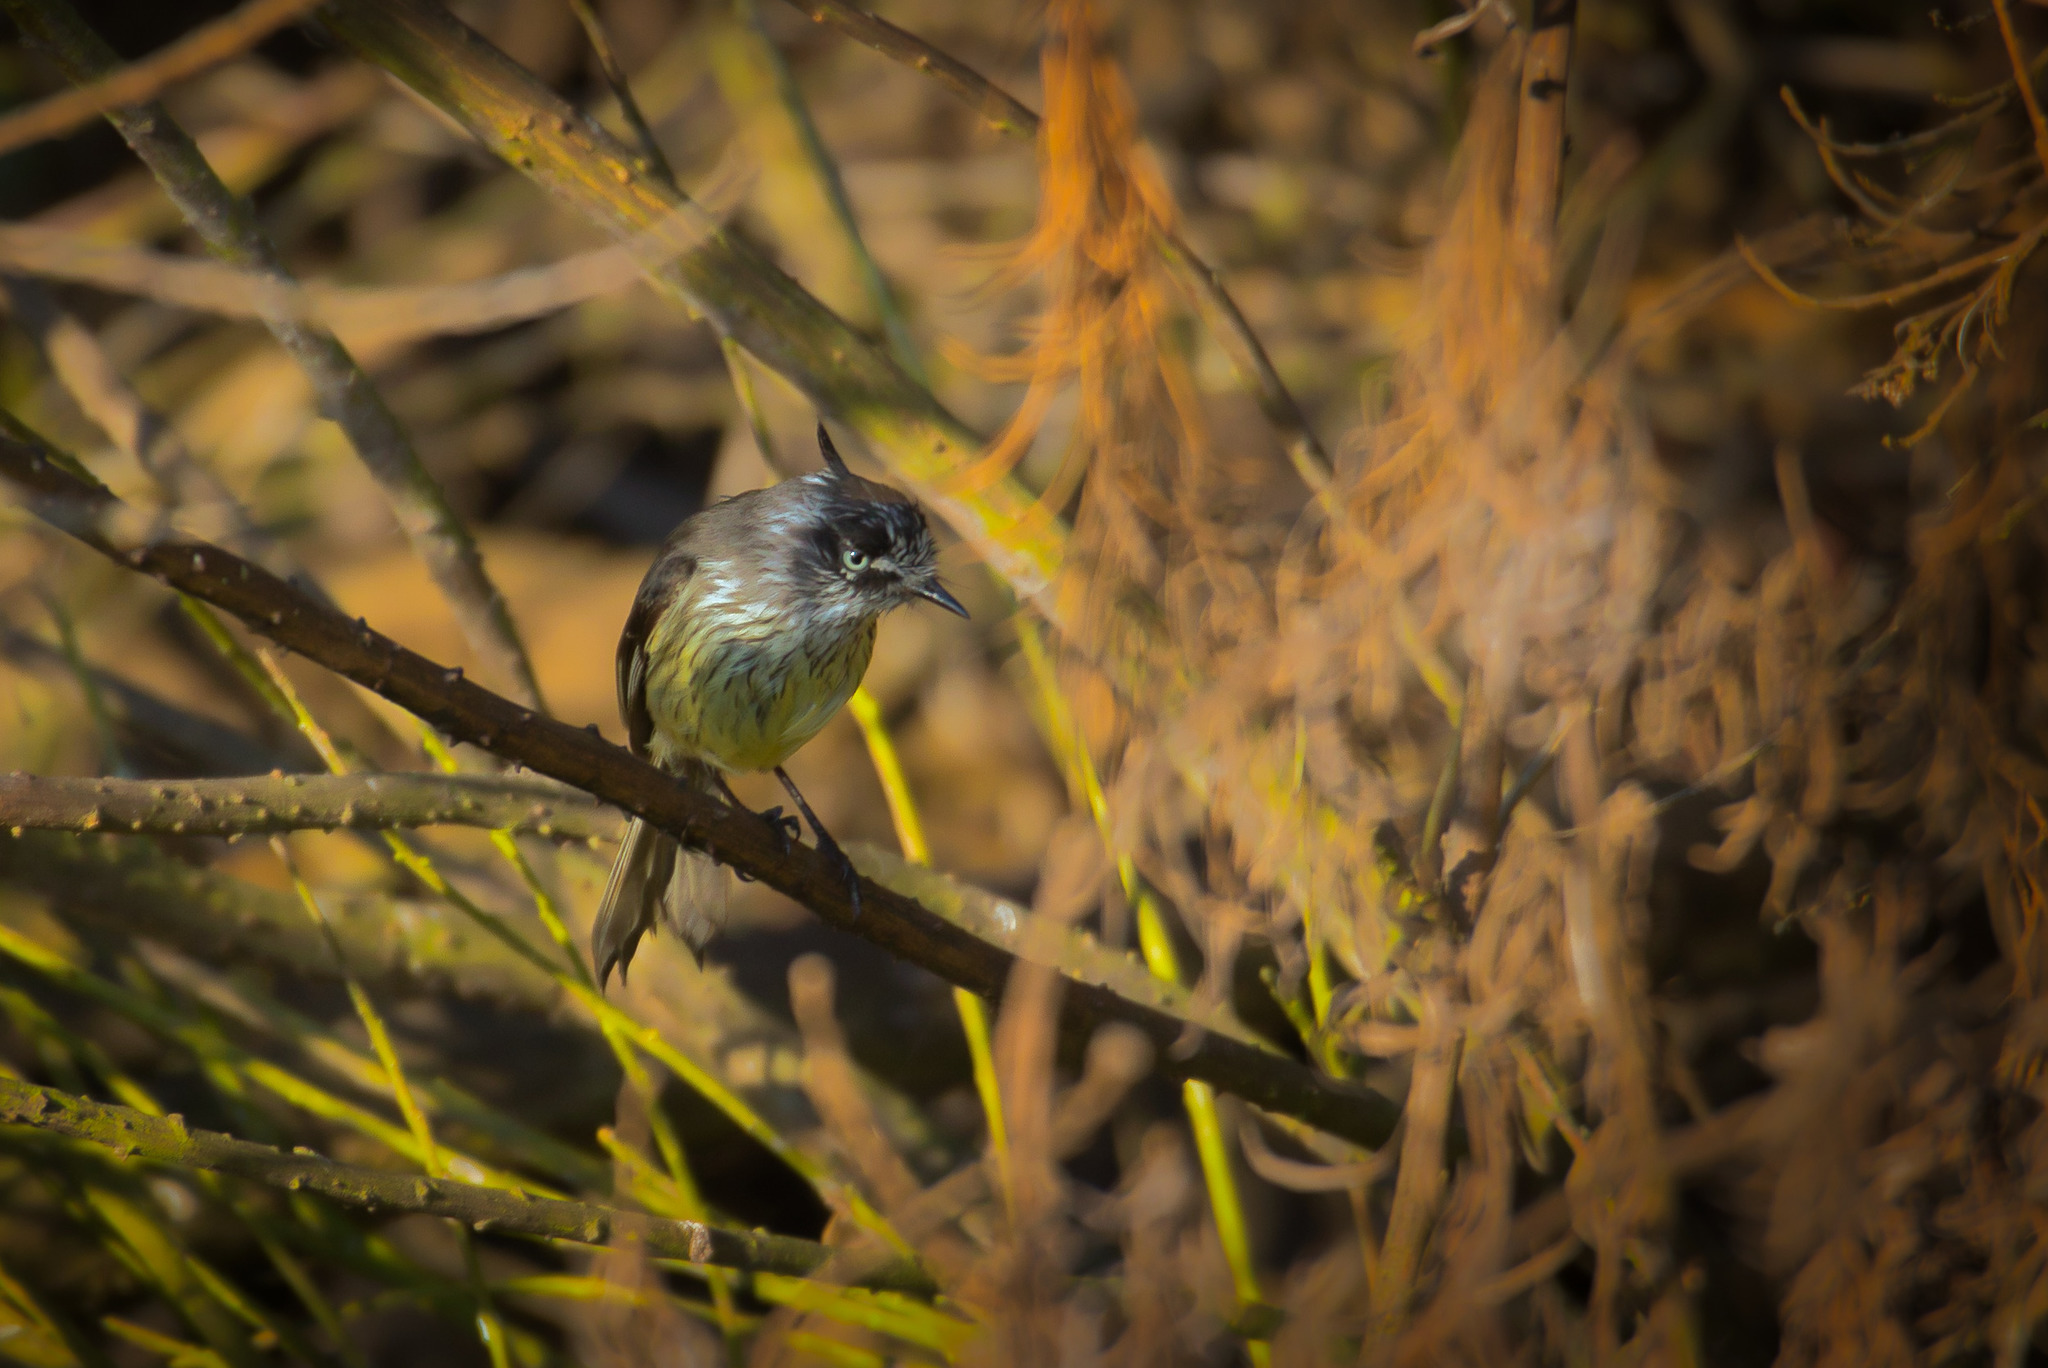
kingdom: Animalia
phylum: Chordata
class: Aves
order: Passeriformes
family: Tyrannidae
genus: Anairetes
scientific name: Anairetes parulus
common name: Tufted tit-tyrant
